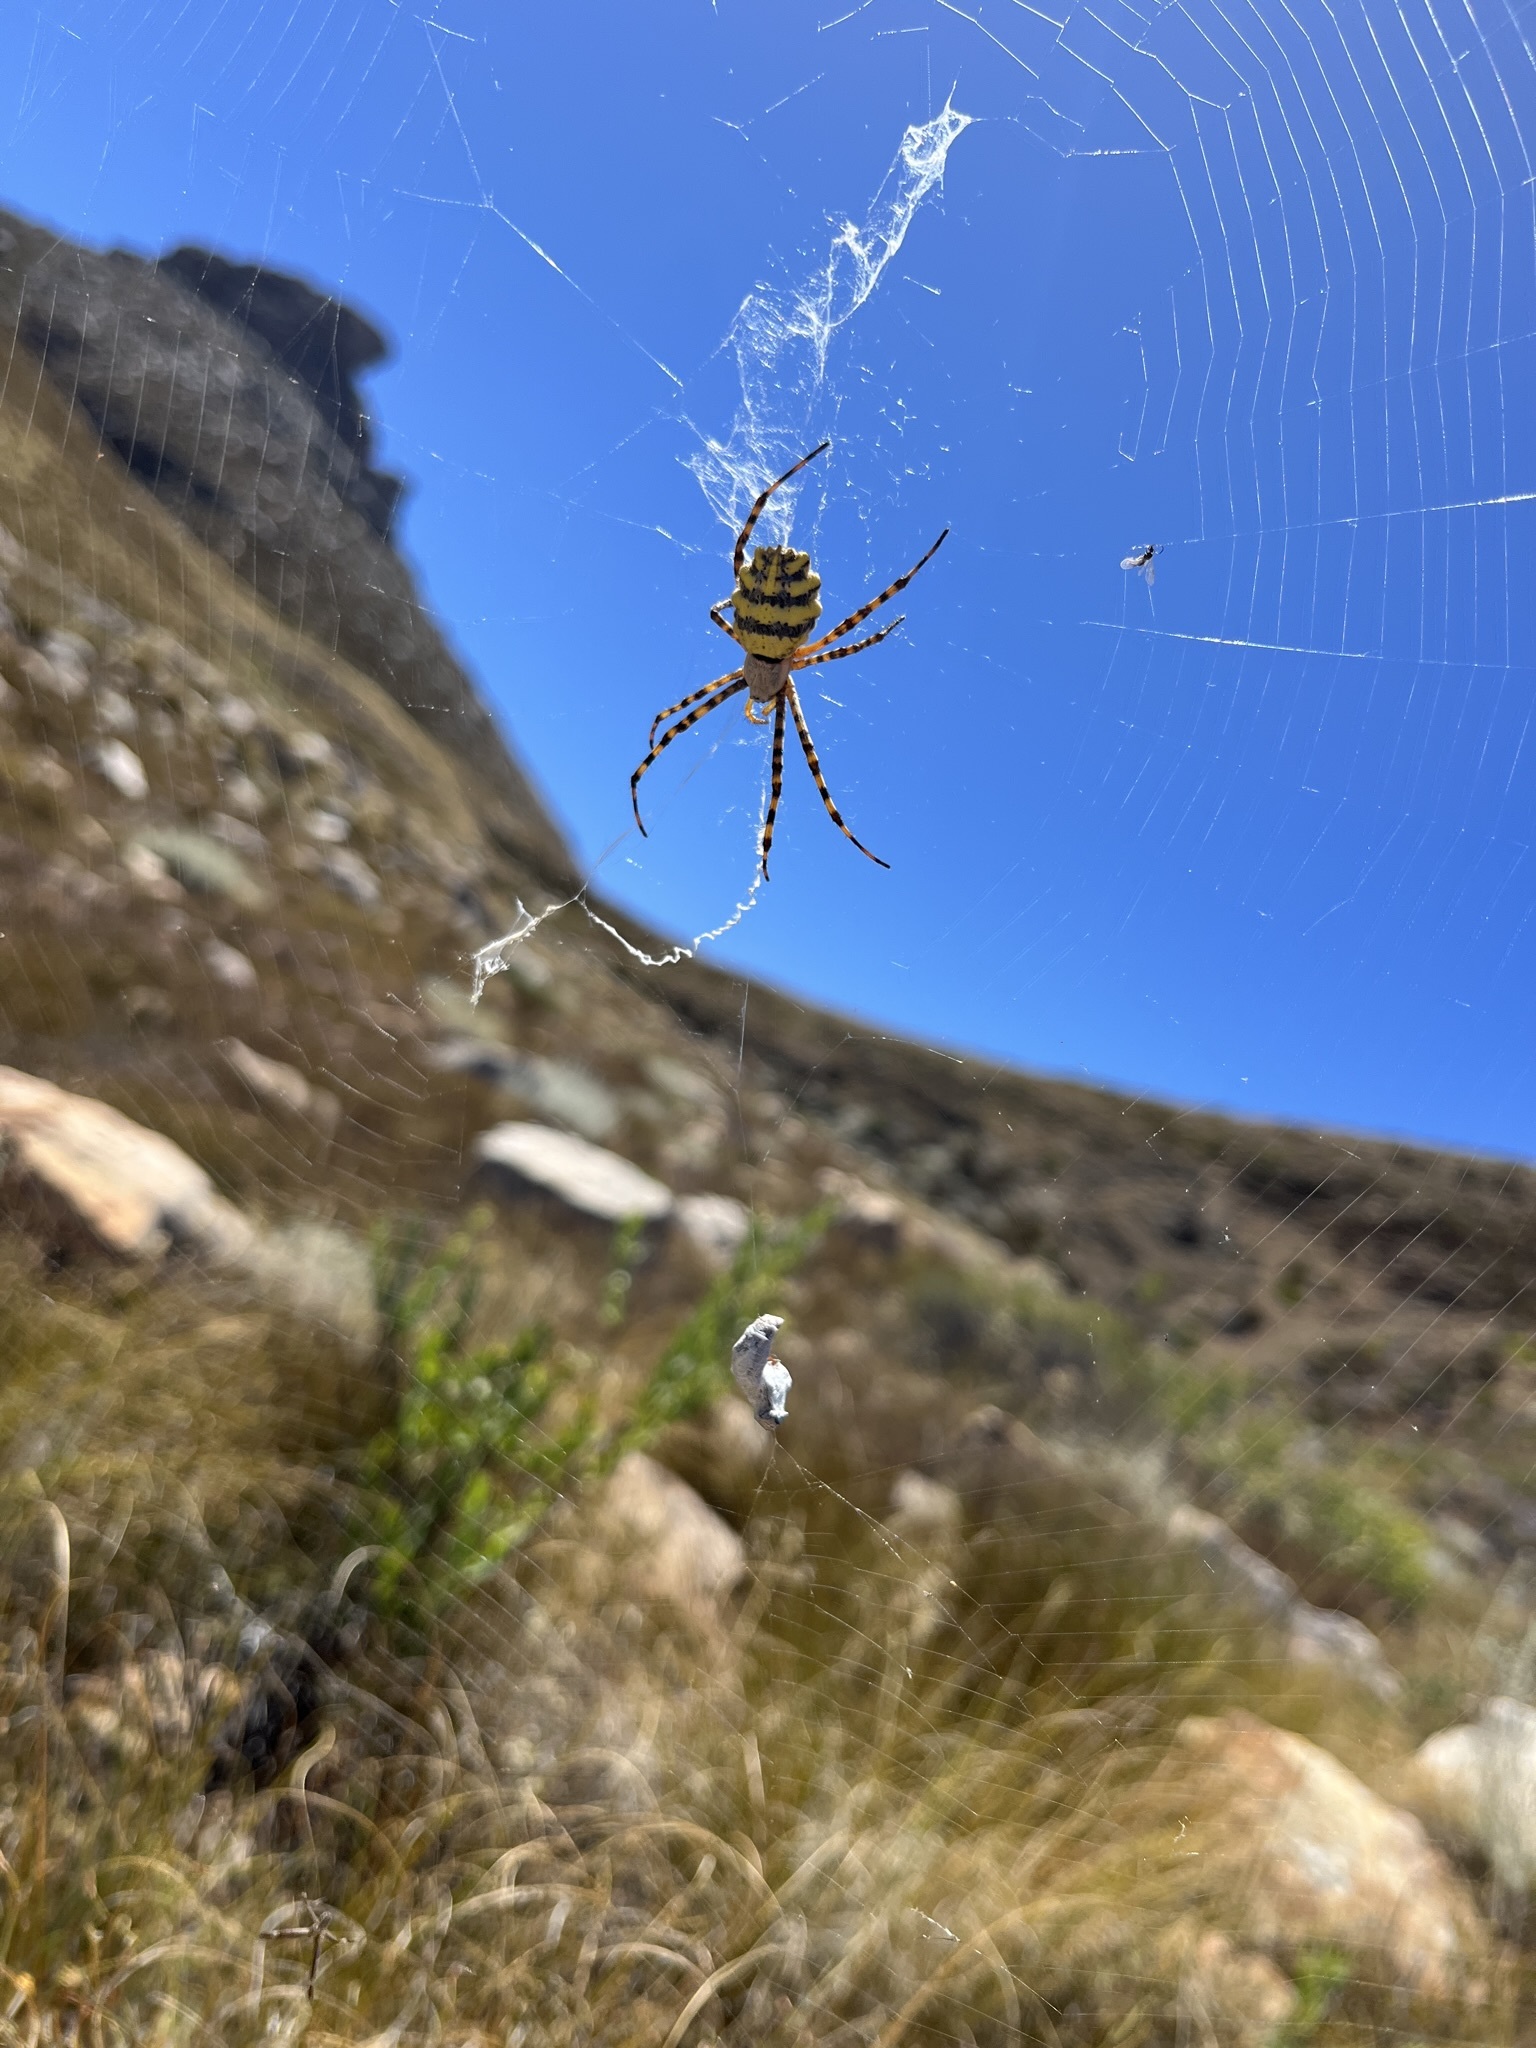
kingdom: Animalia
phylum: Arthropoda
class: Arachnida
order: Araneae
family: Araneidae
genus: Argiope
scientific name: Argiope australis
